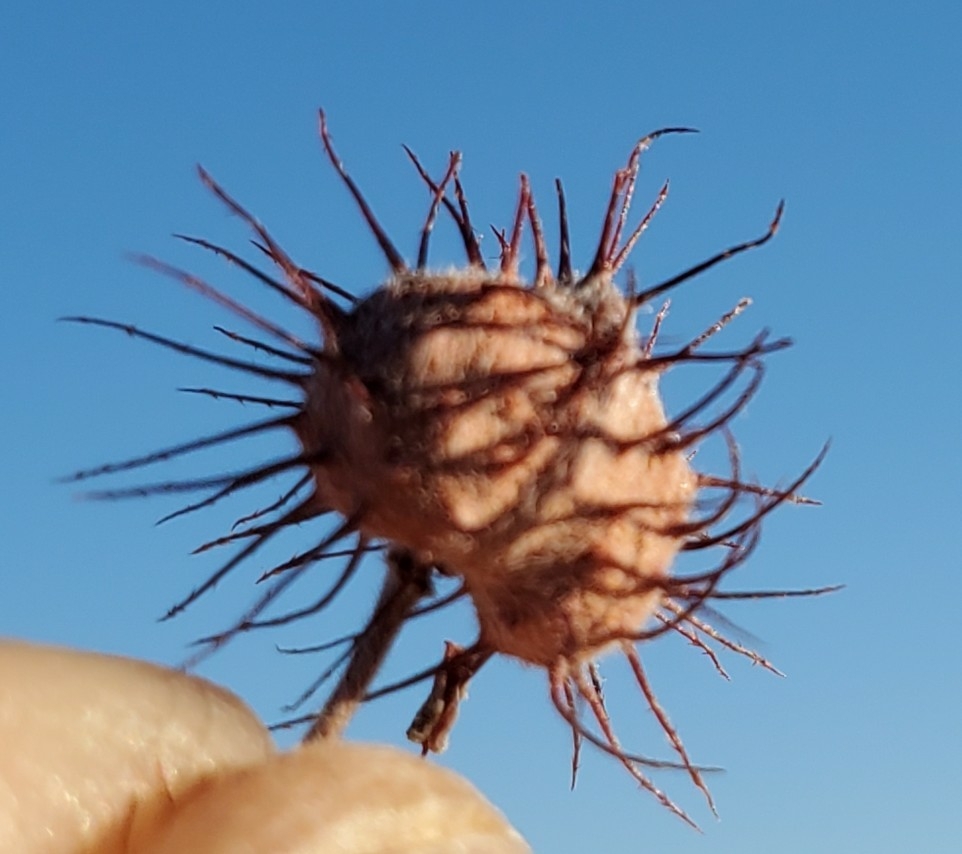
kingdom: Plantae
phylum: Tracheophyta
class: Magnoliopsida
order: Zygophyllales
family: Krameriaceae
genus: Krameria
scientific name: Krameria erecta
